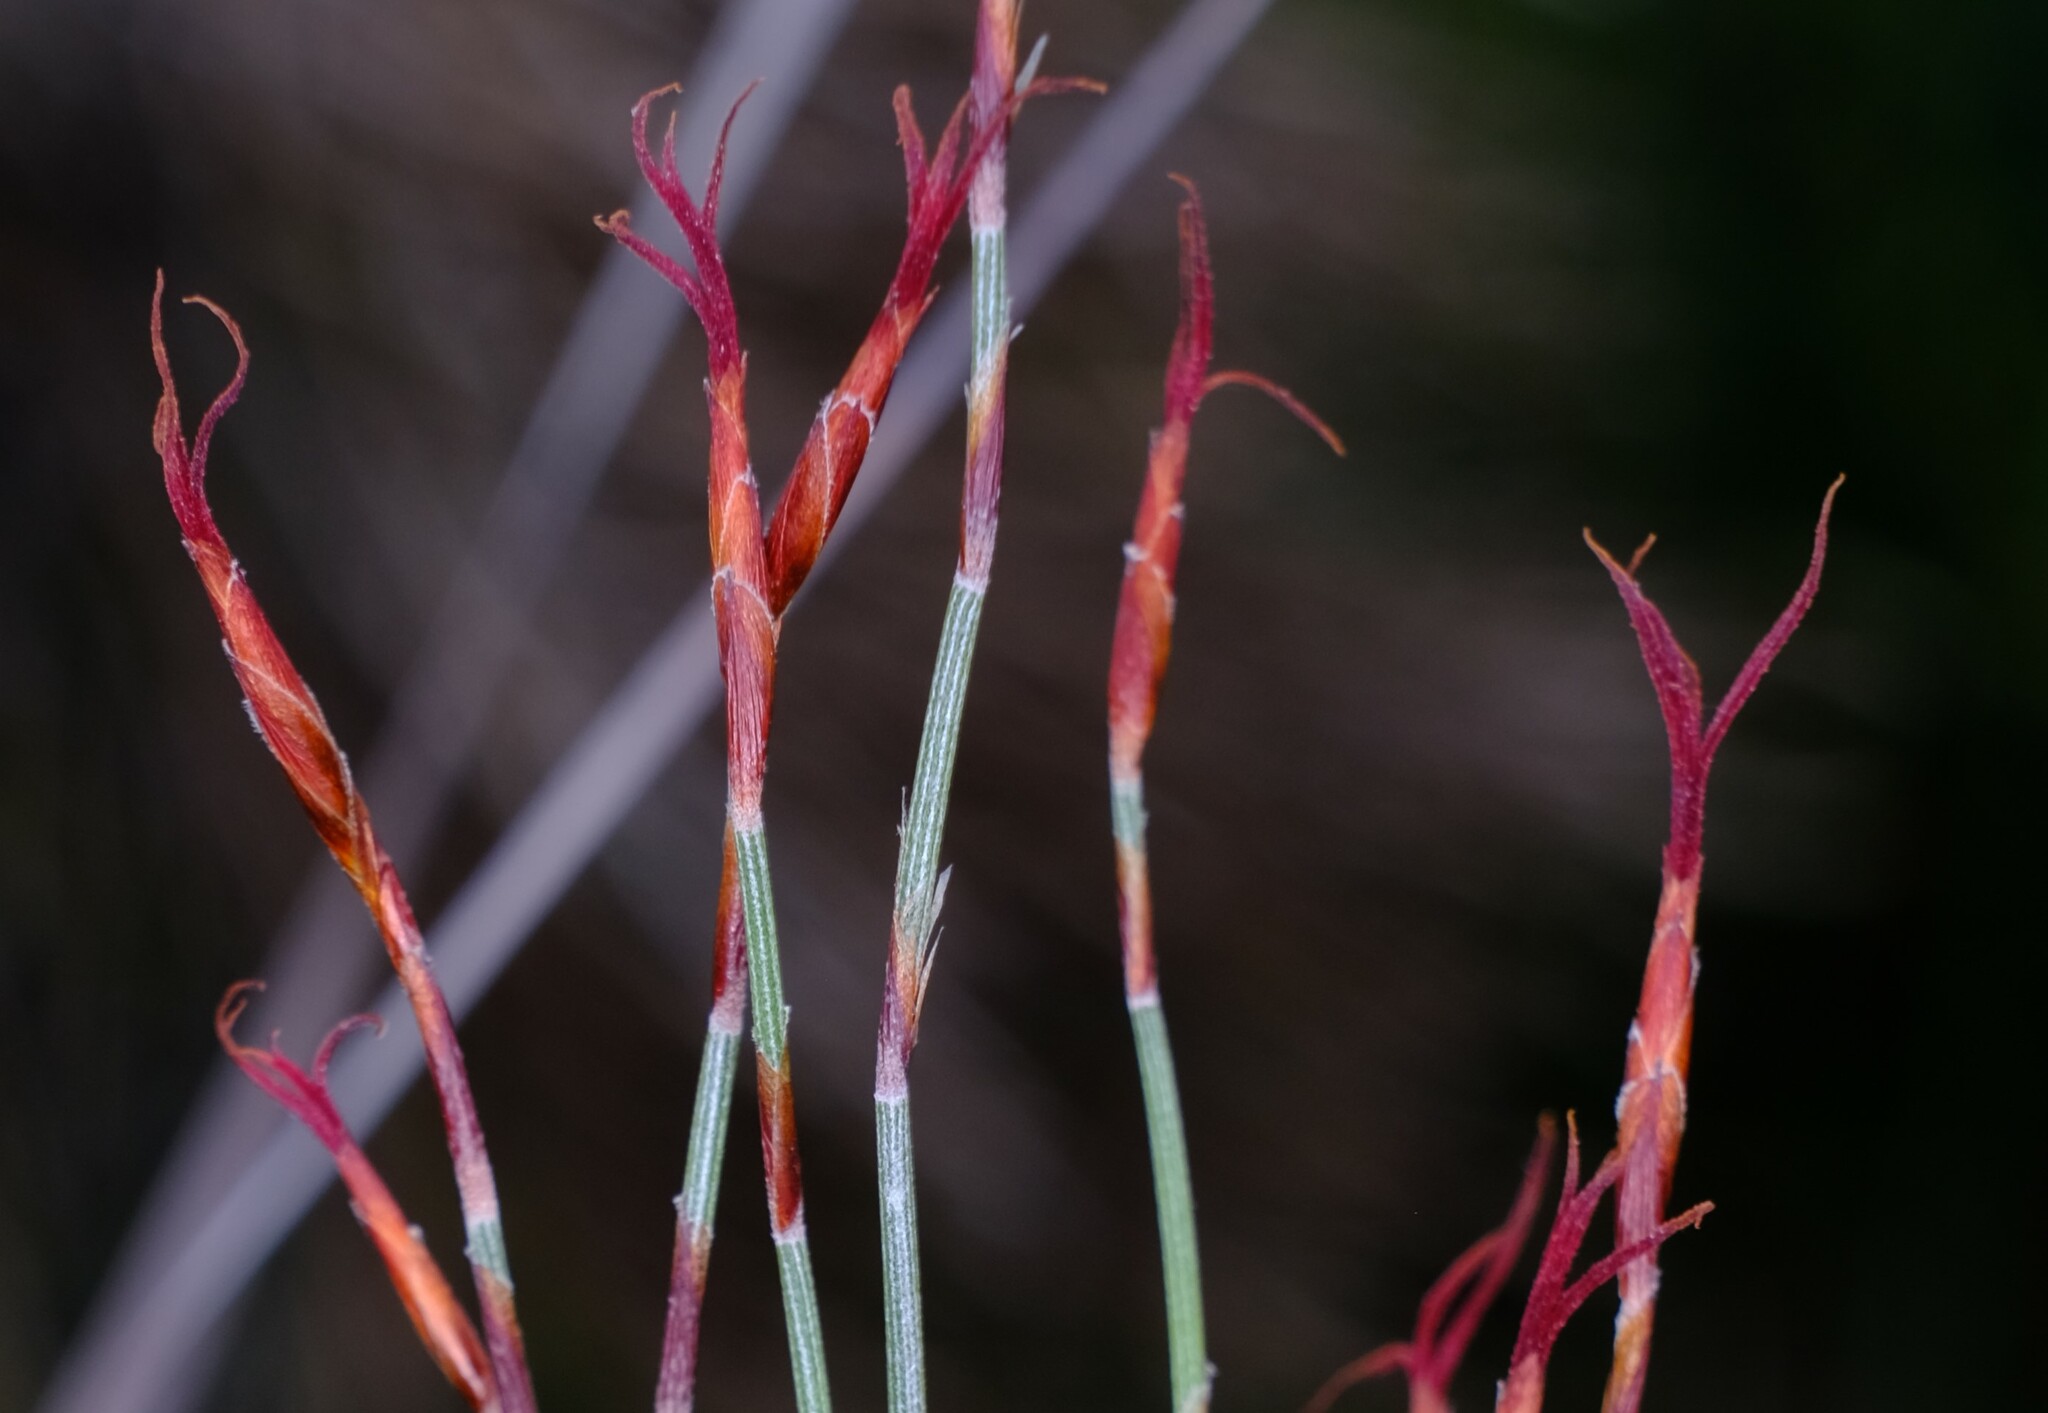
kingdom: Plantae
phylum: Tracheophyta
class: Liliopsida
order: Poales
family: Restionaceae
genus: Hypolaena
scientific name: Hypolaena fastigiata
